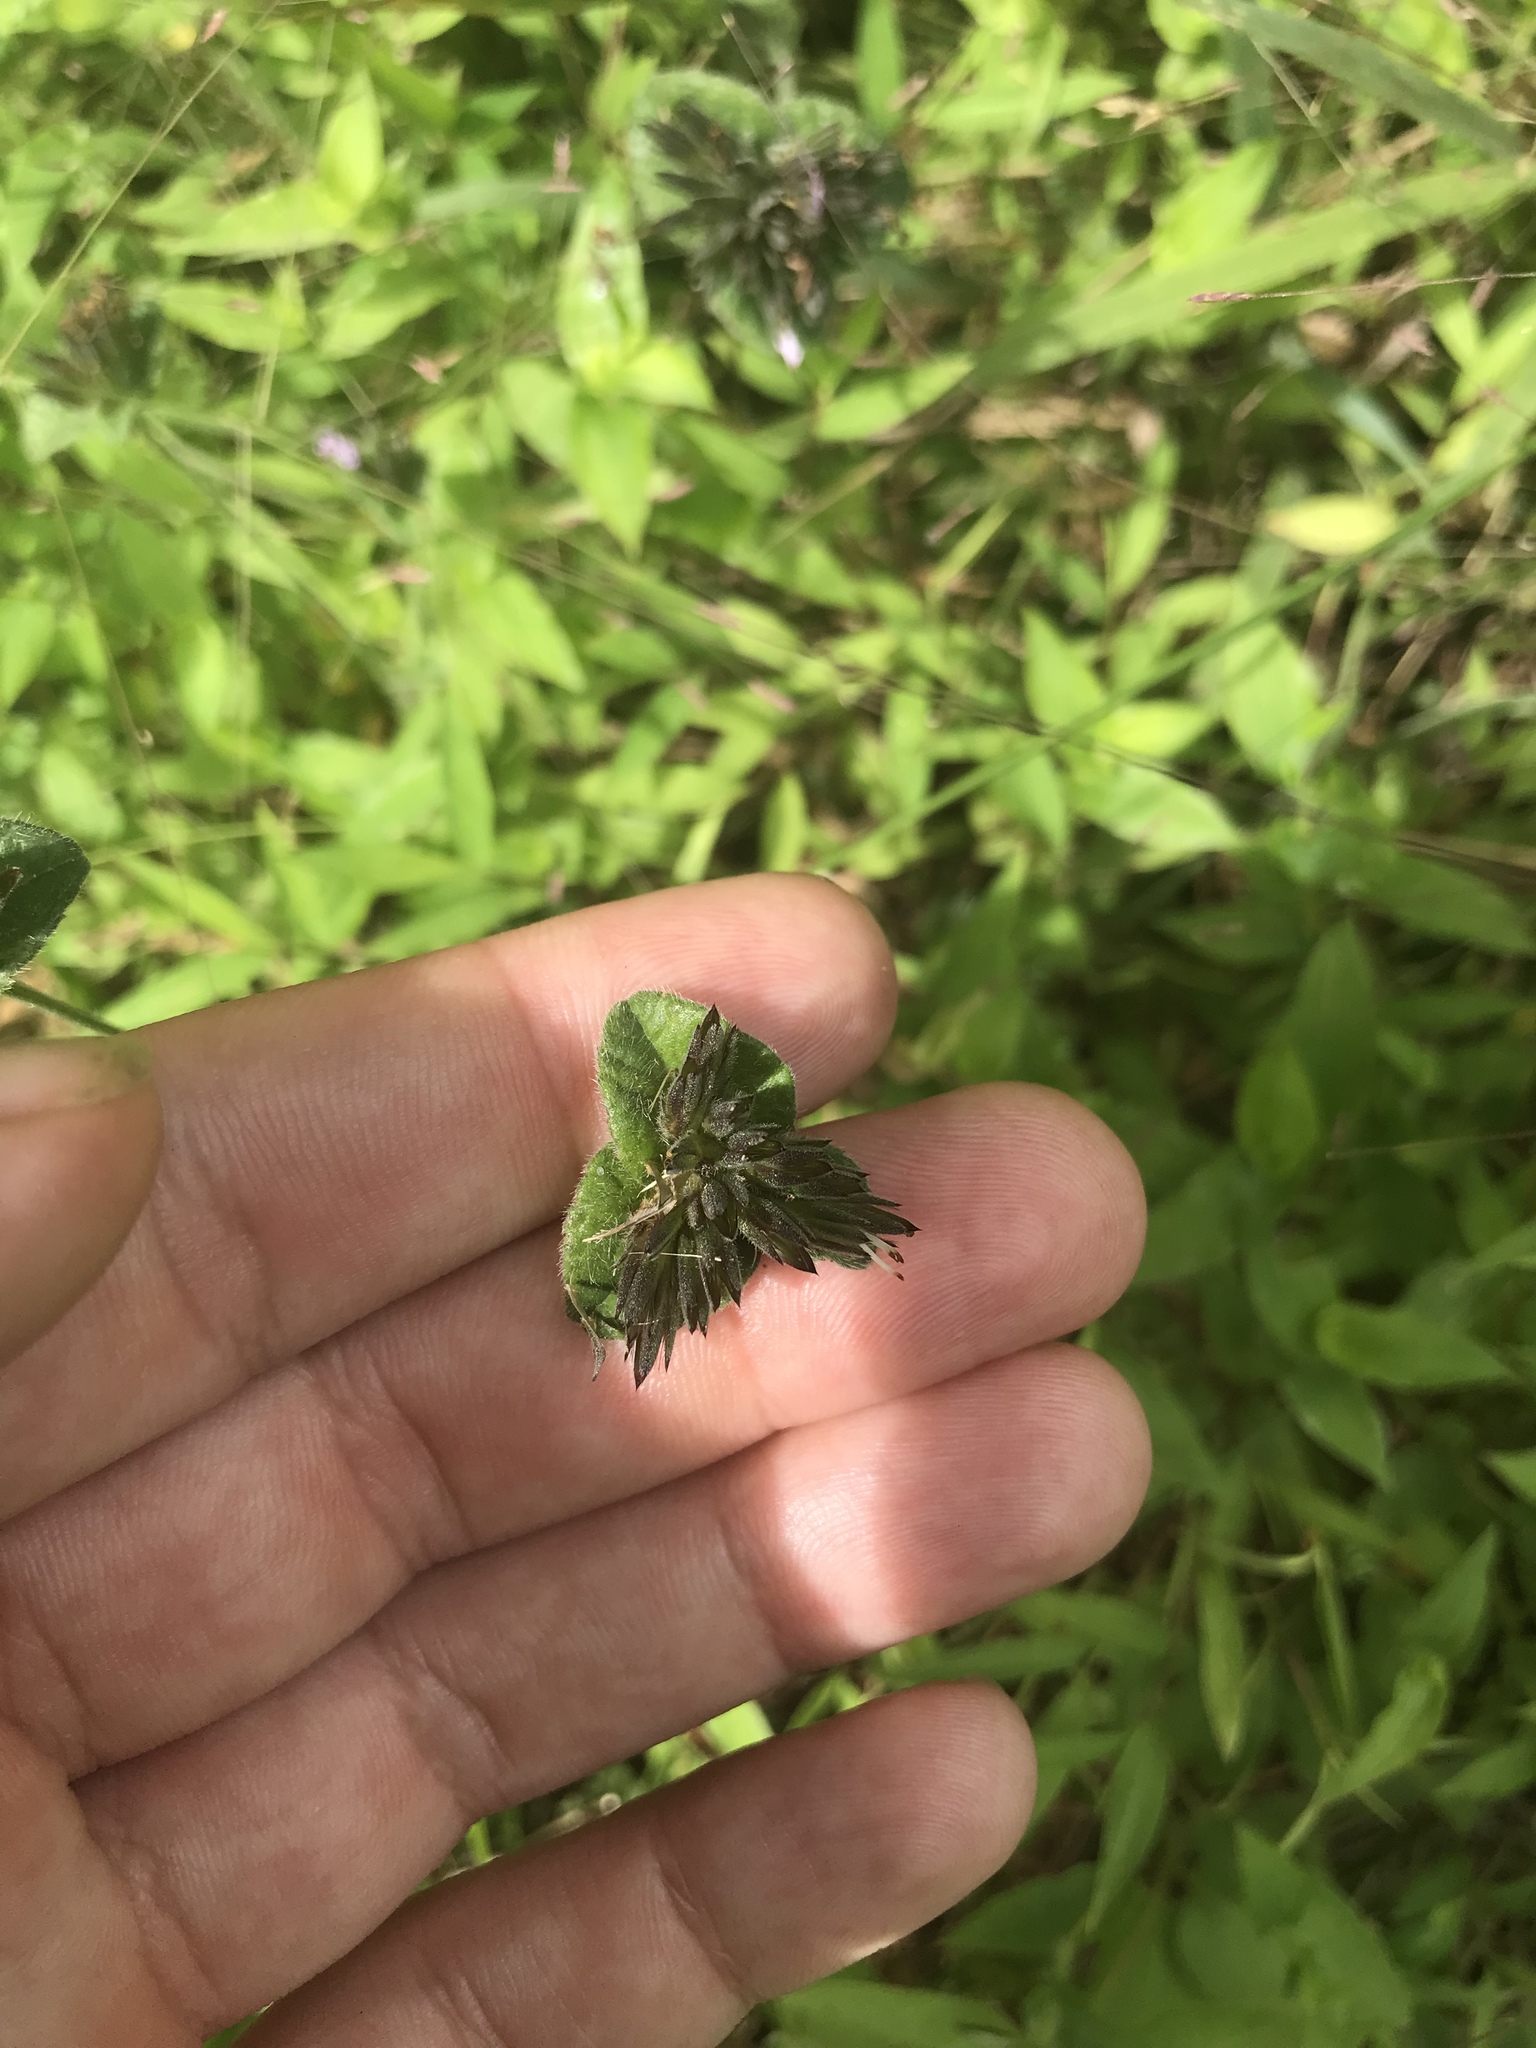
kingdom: Plantae
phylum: Tracheophyta
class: Magnoliopsida
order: Asterales
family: Asteraceae
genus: Elephantopus
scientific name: Elephantopus tomentosus
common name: Tobacco-weed
